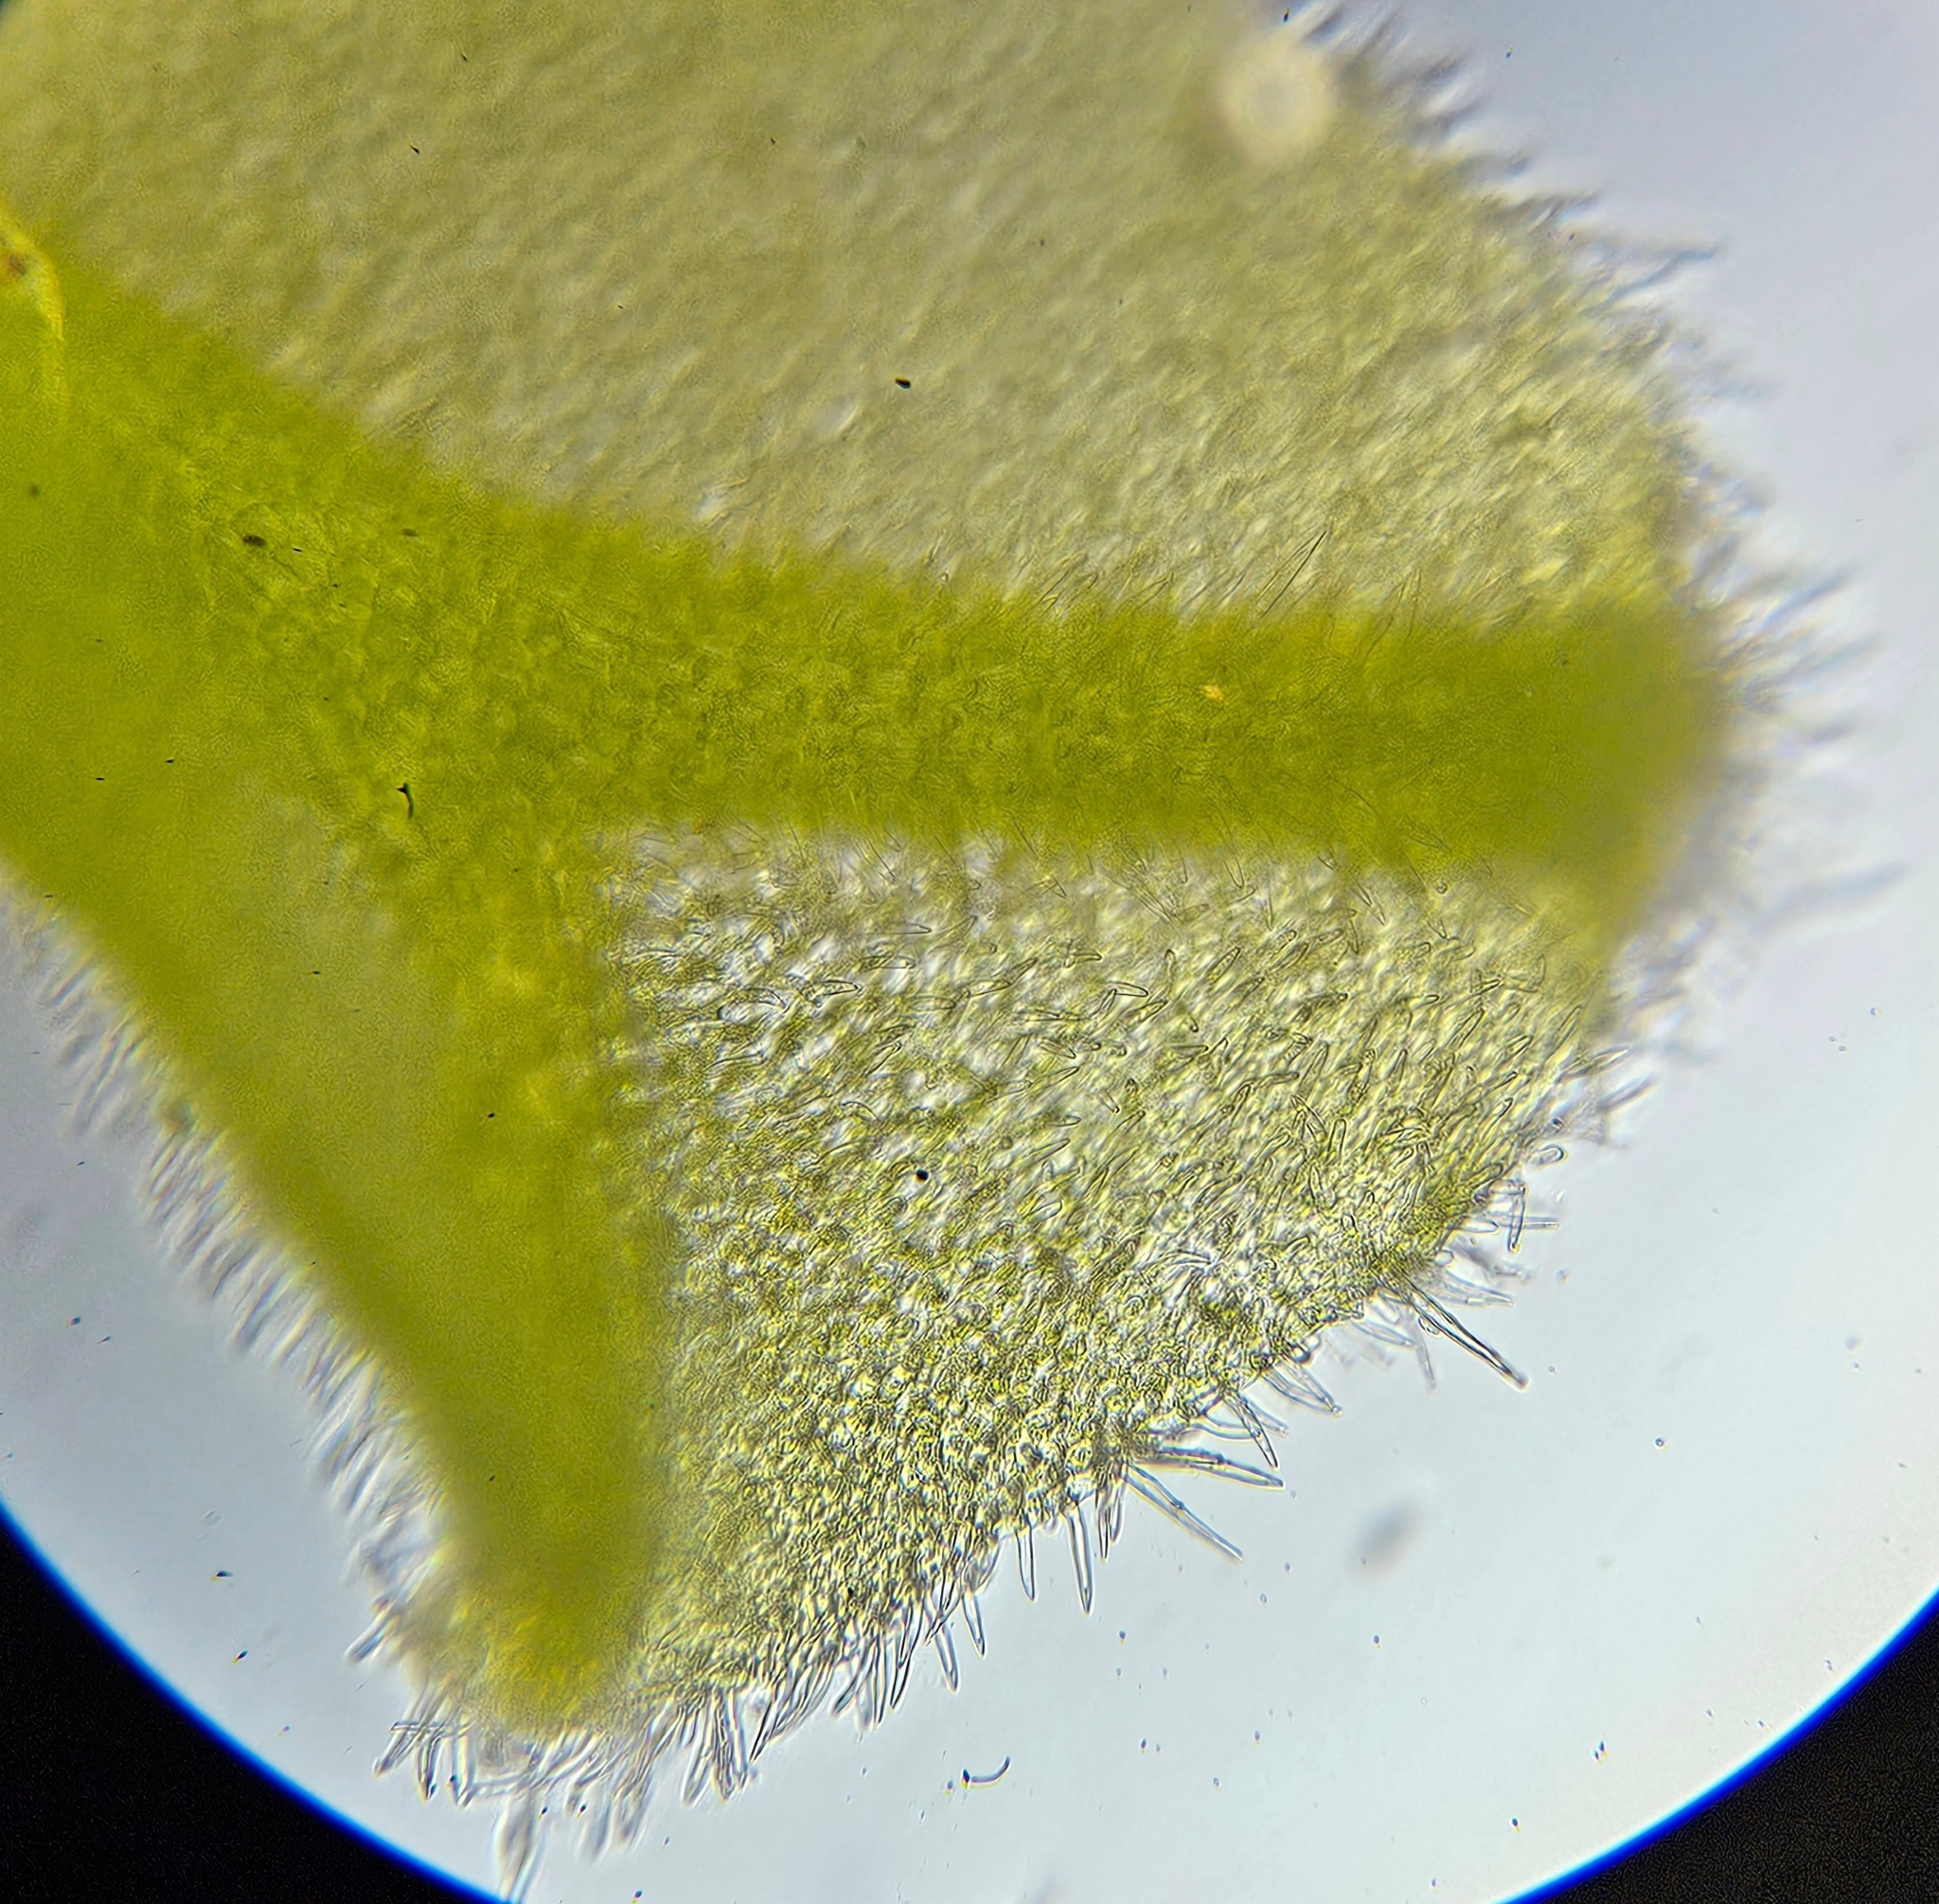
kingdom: Plantae
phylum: Marchantiophyta
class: Jungermanniopsida
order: Metzgeriales
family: Metzgeriaceae
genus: Metzgeria
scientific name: Metzgeria pubescens
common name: Downy veilwort
